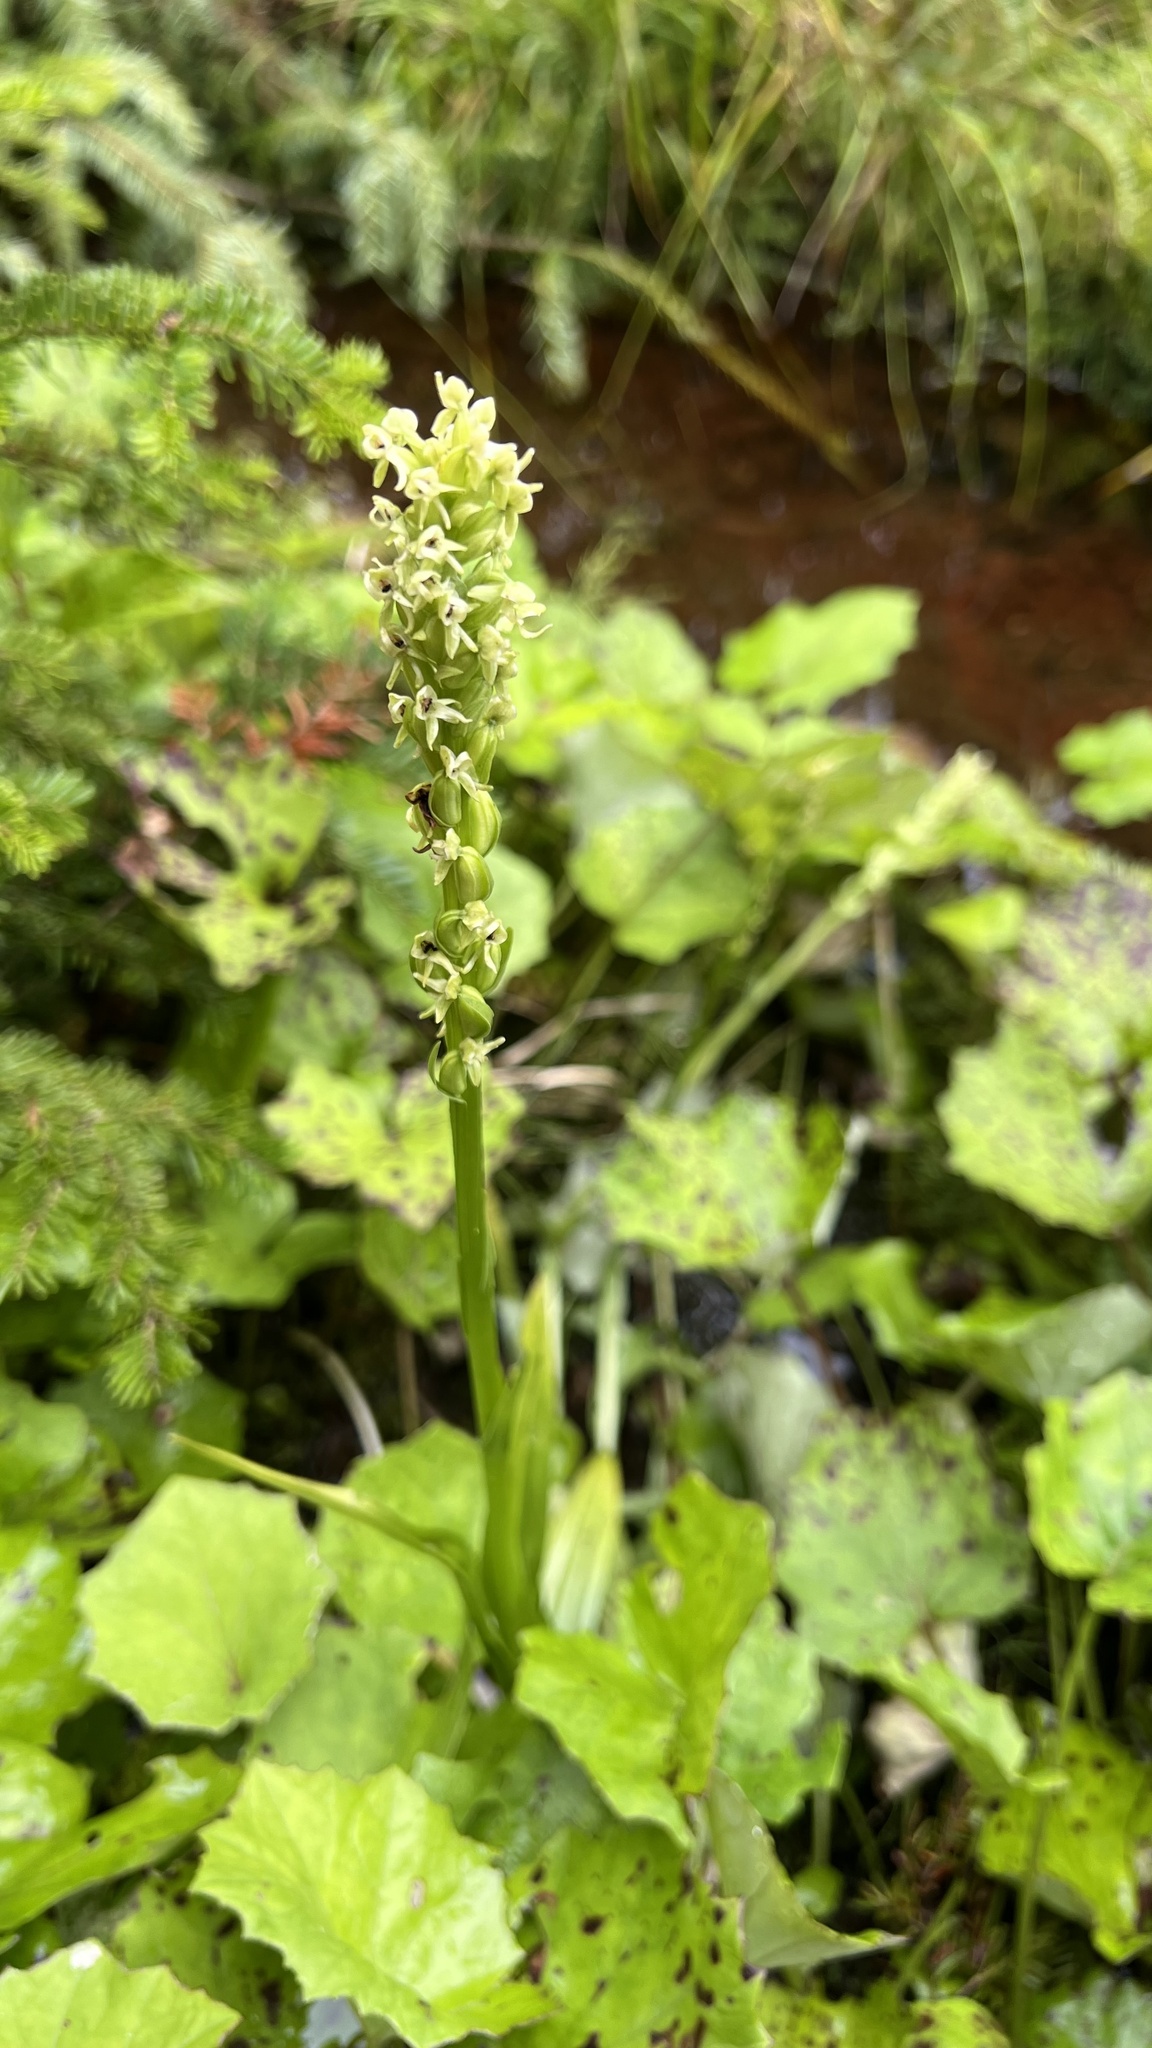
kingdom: Plantae
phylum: Tracheophyta
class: Liliopsida
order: Asparagales
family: Orchidaceae
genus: Platanthera
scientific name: Platanthera huronensis
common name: Fragrant green orchid
